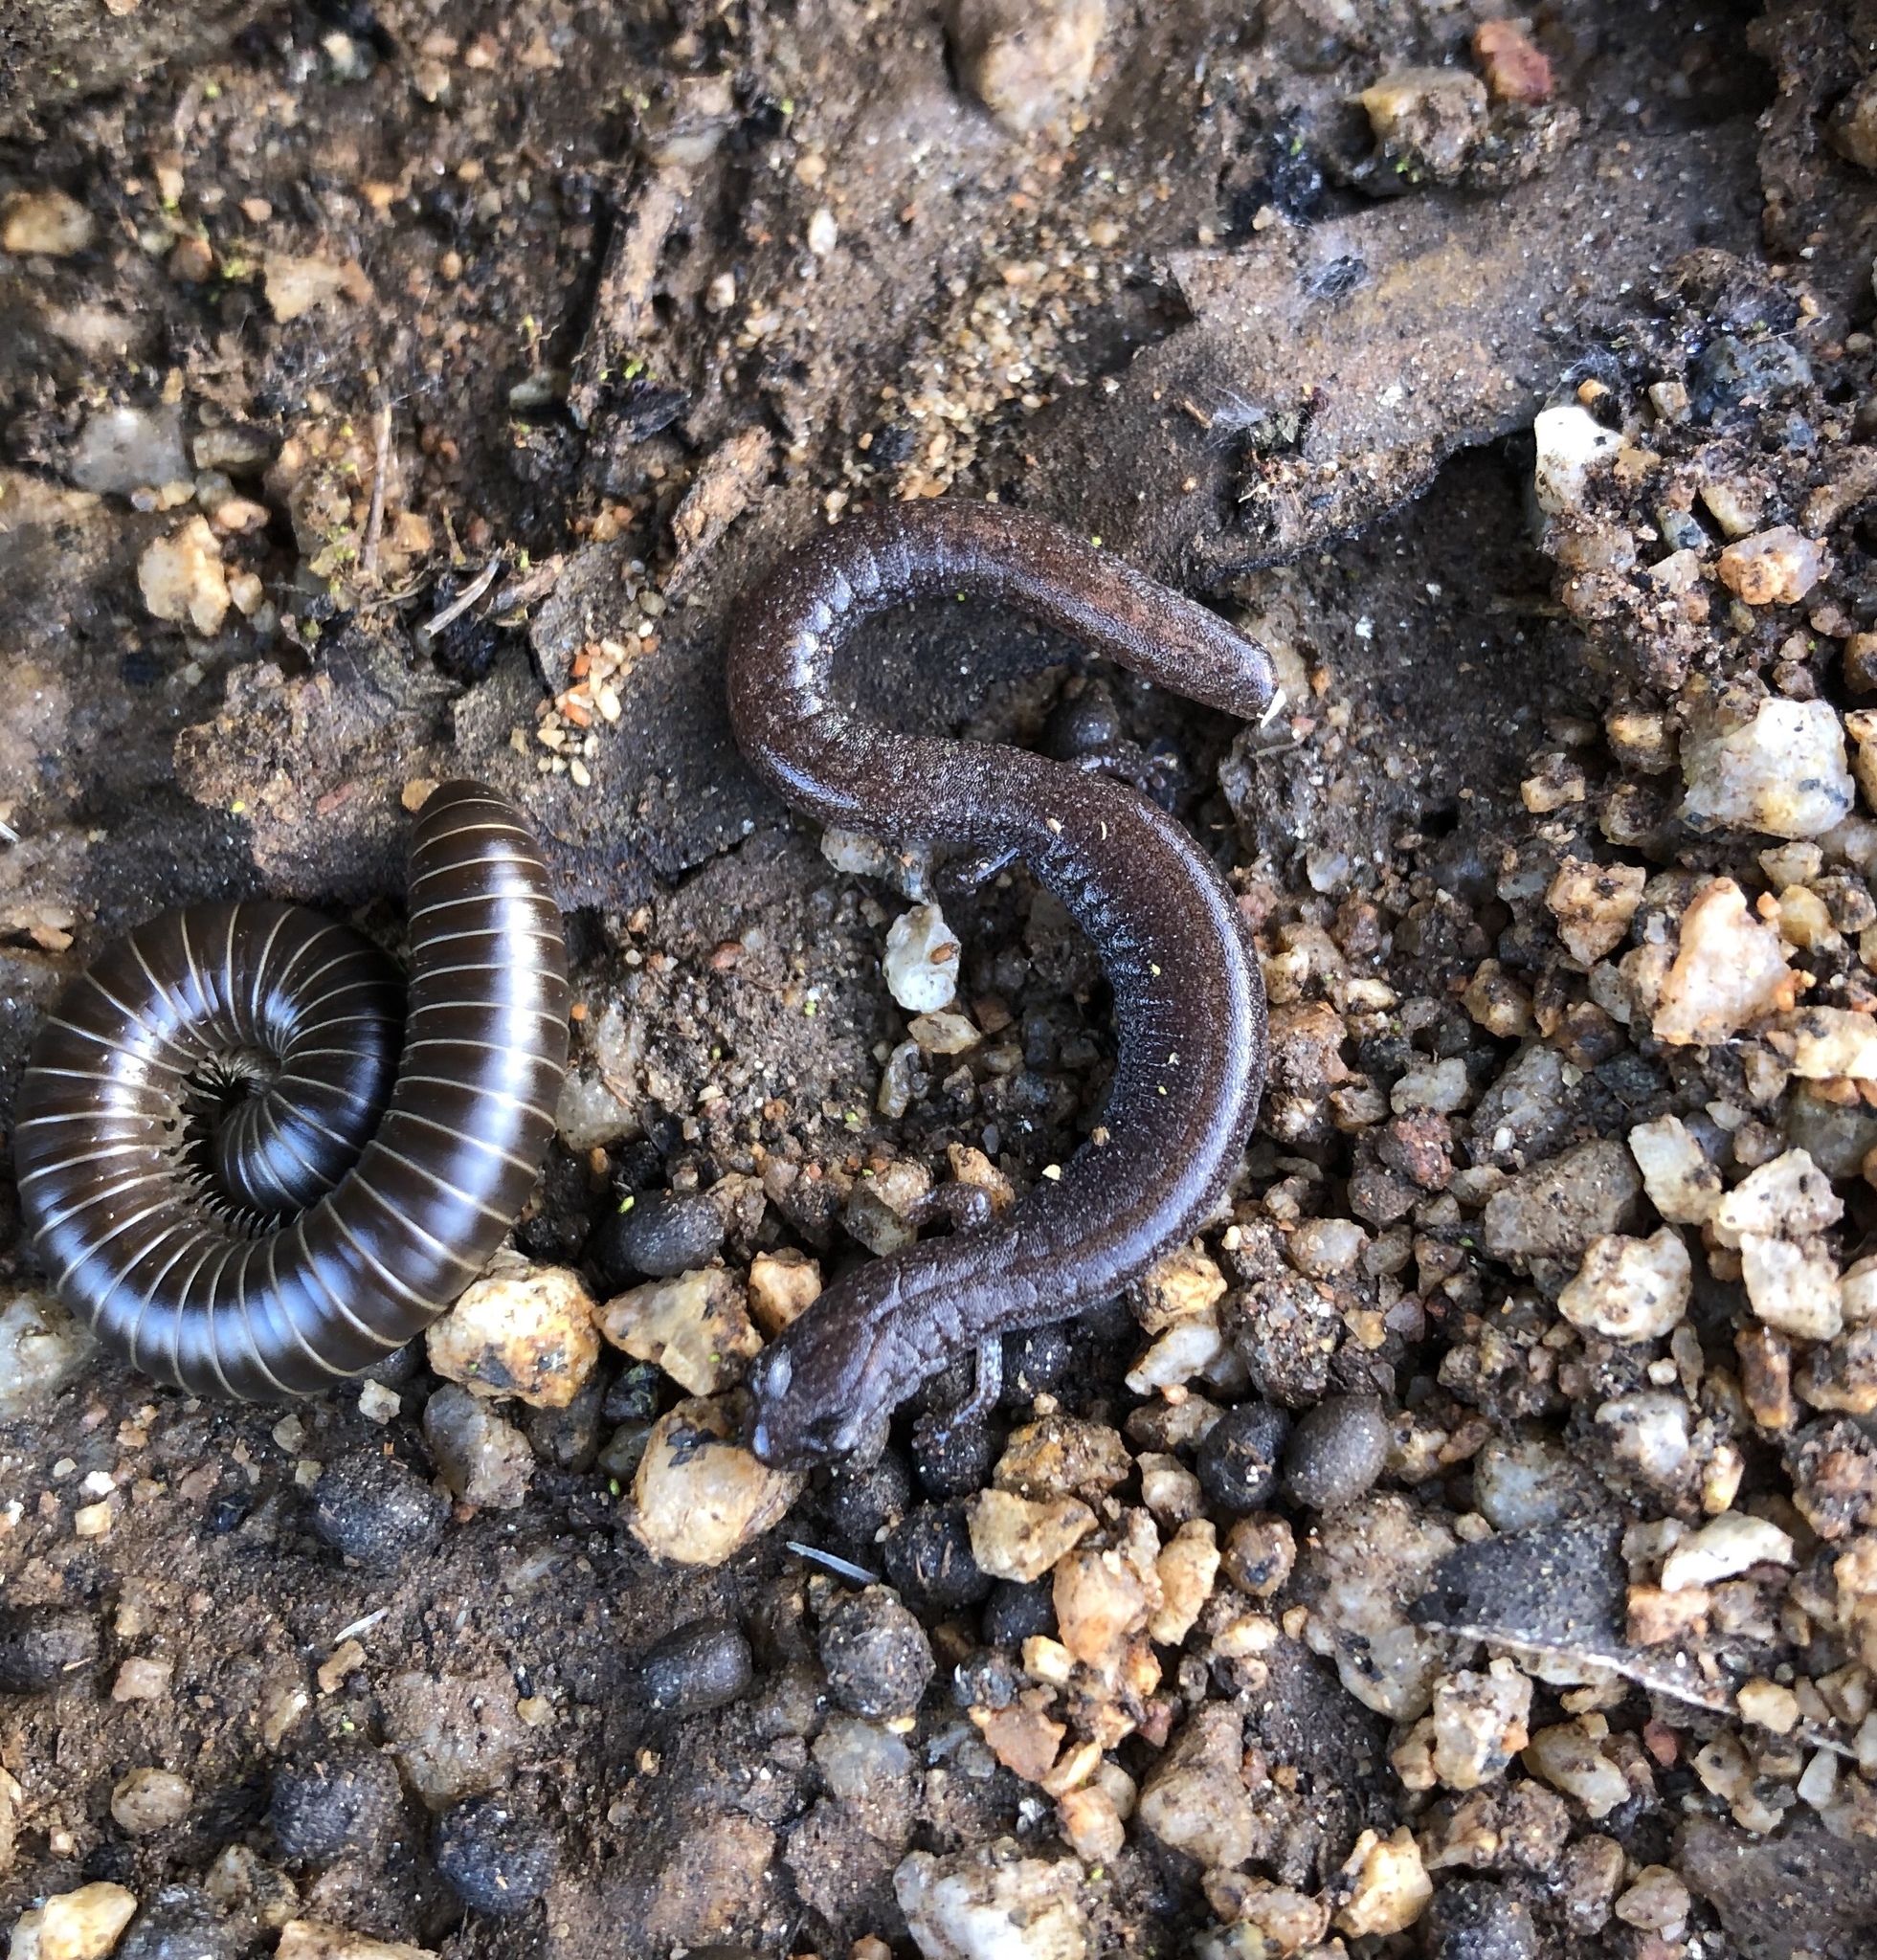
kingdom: Animalia
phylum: Chordata
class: Amphibia
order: Caudata
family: Plethodontidae
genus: Batrachoseps
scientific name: Batrachoseps major
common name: Garden slender salamander
